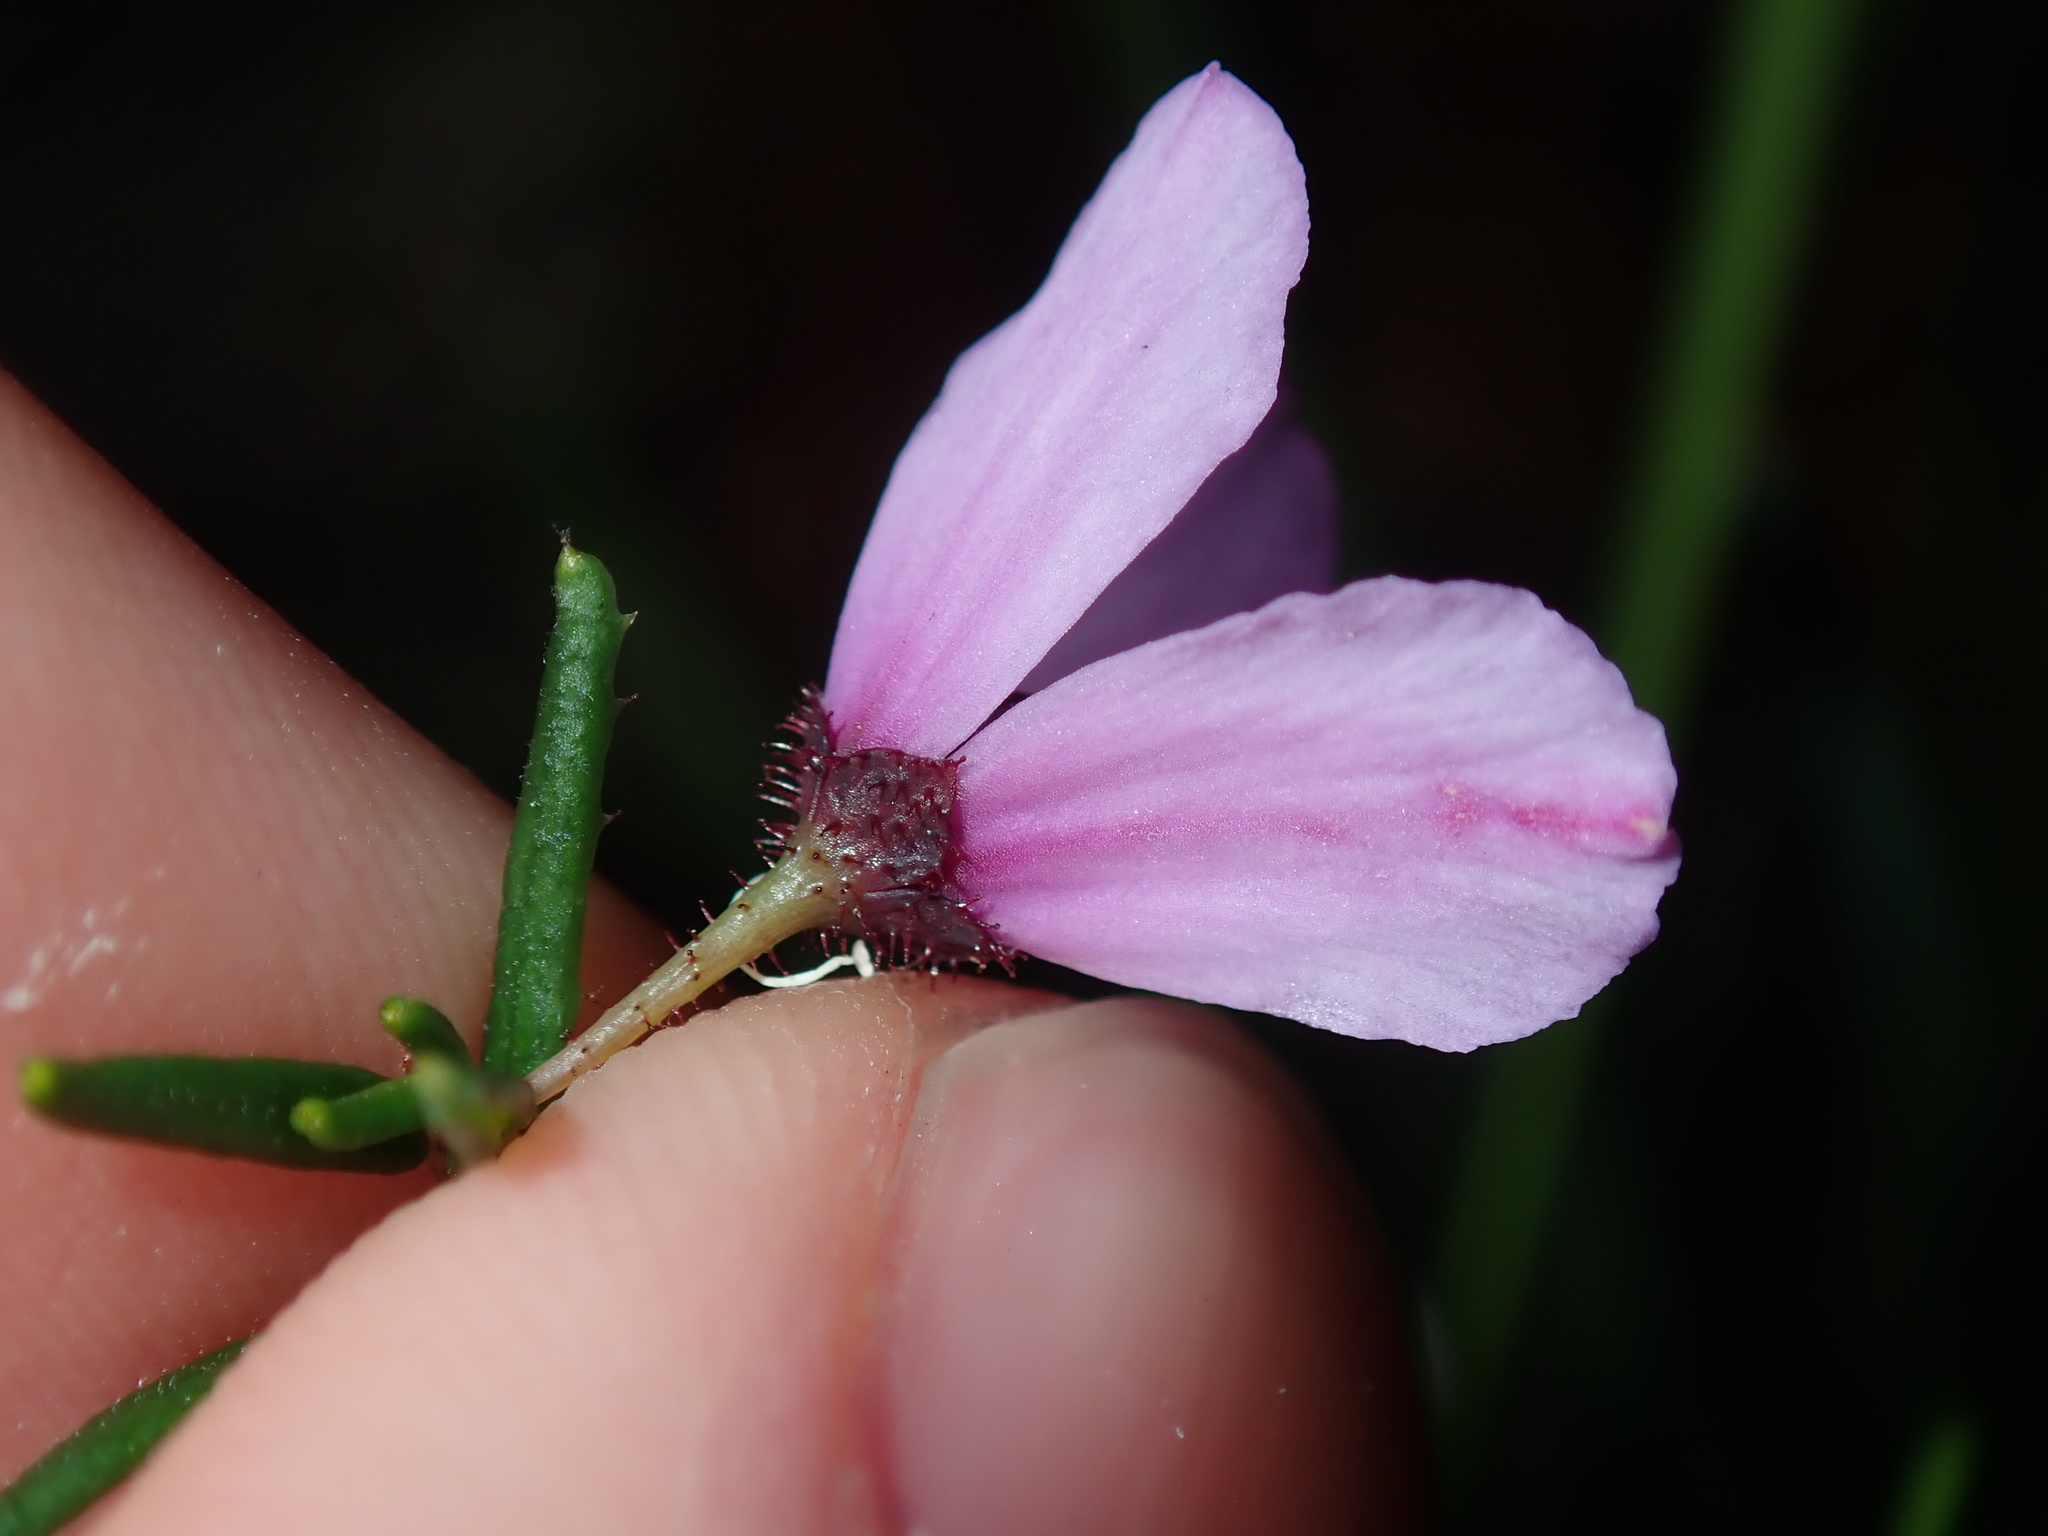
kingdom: Plantae
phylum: Tracheophyta
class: Magnoliopsida
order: Oxalidales
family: Elaeocarpaceae
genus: Tetratheca
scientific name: Tetratheca glandulosa
